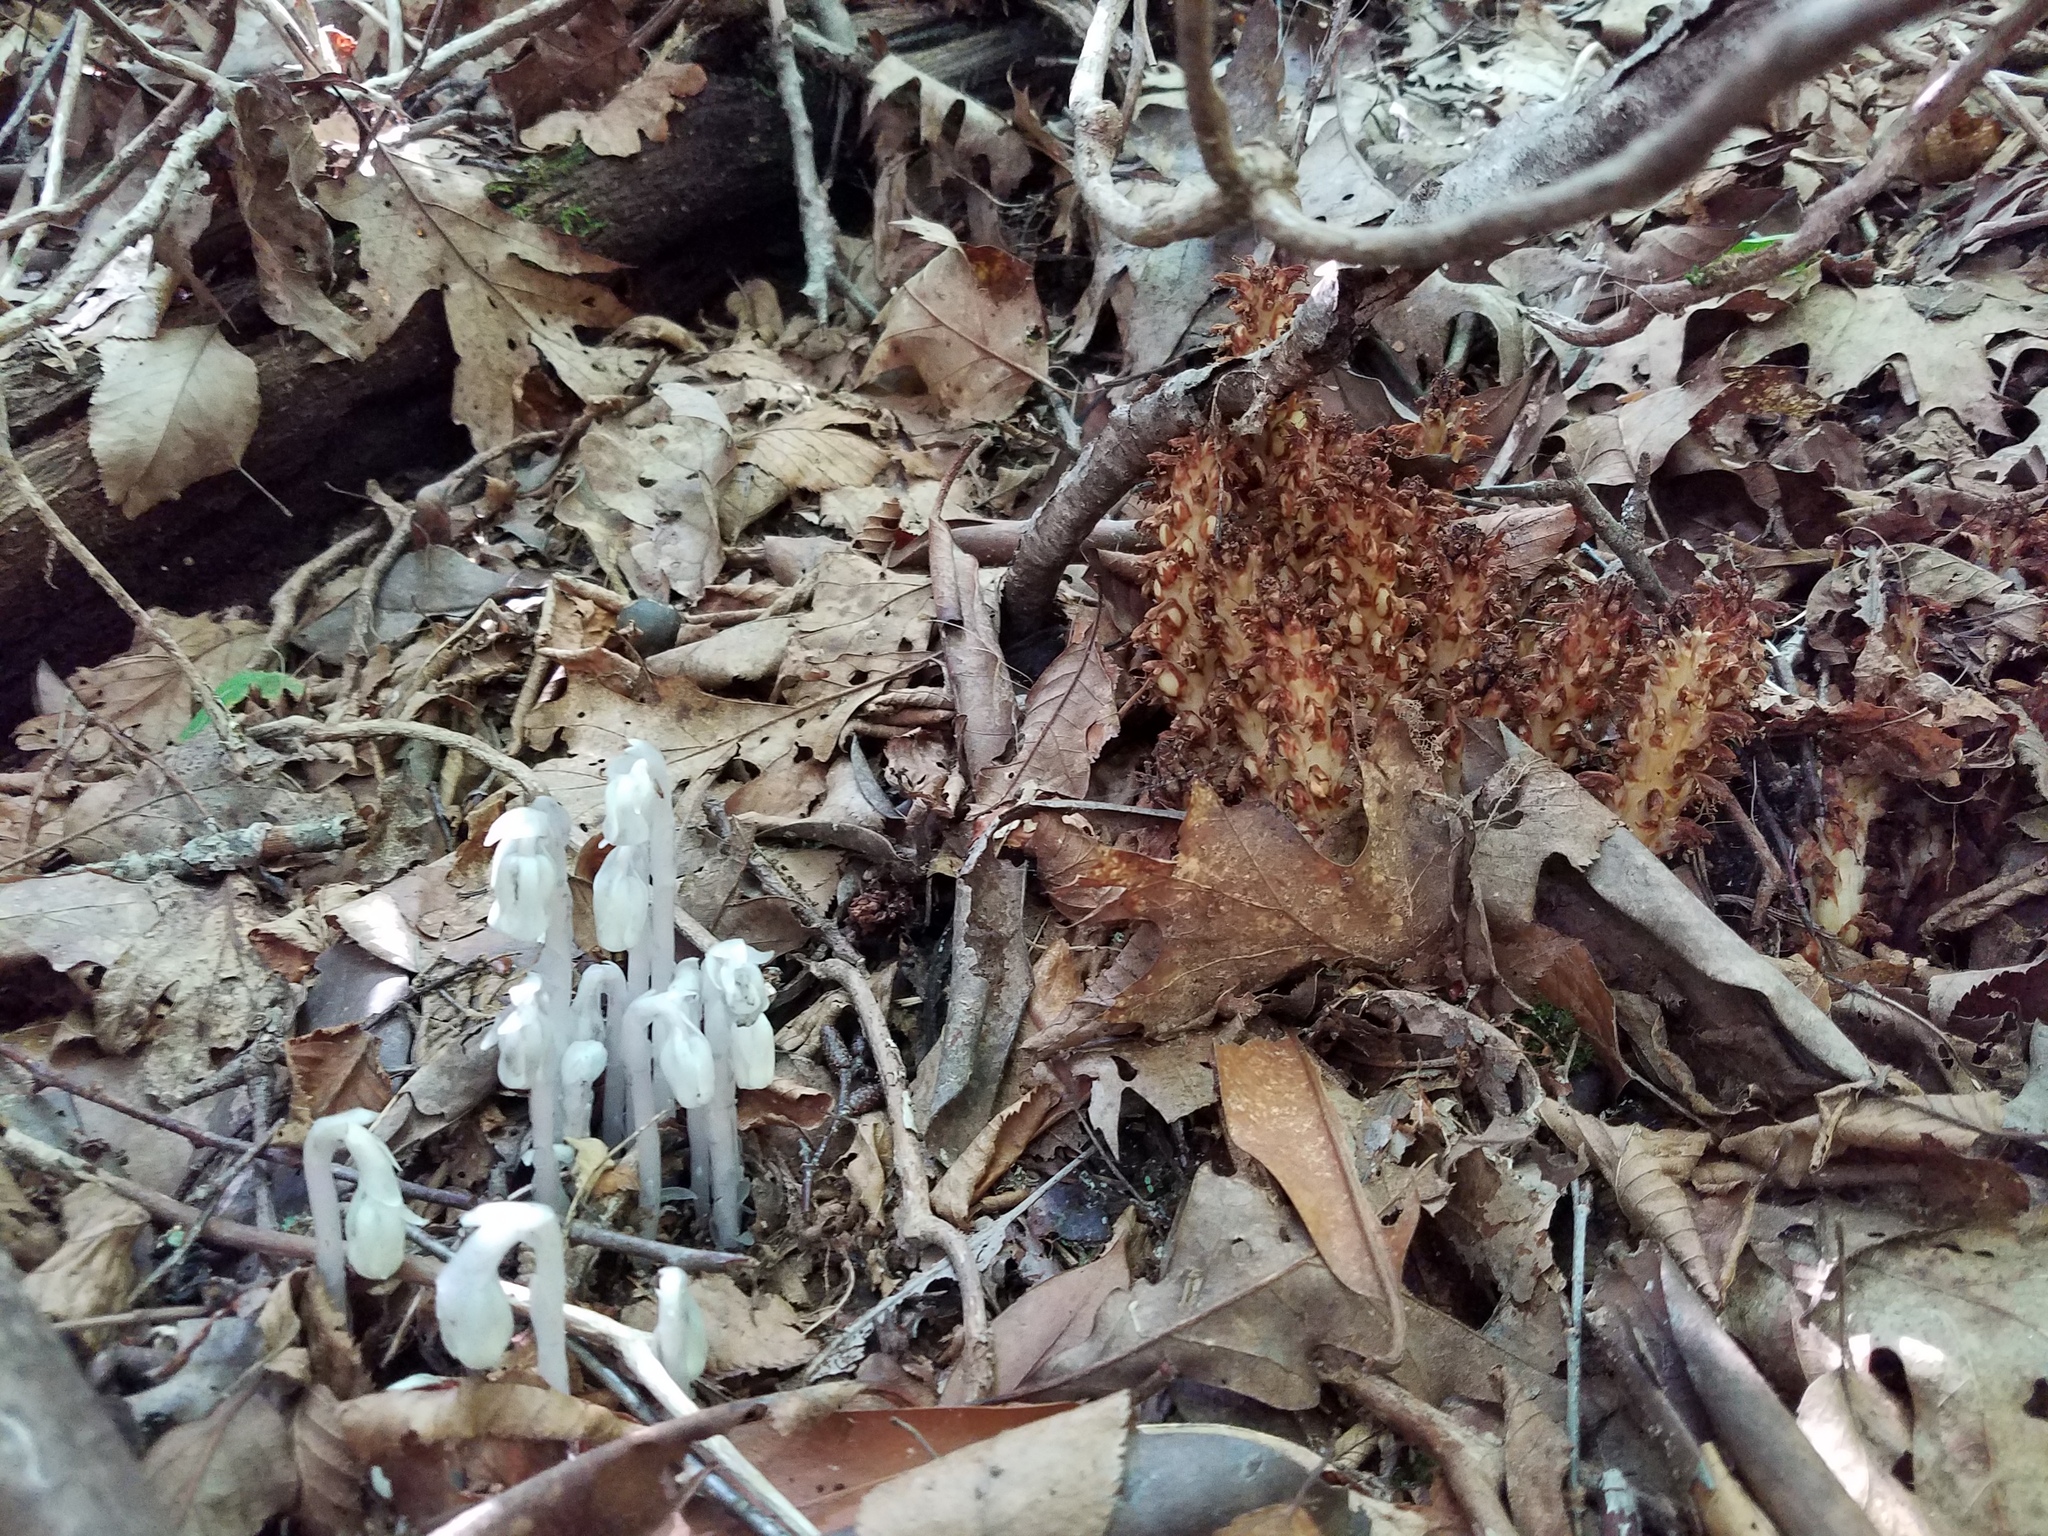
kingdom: Plantae
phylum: Tracheophyta
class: Magnoliopsida
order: Ericales
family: Ericaceae
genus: Monotropa
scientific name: Monotropa uniflora
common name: Convulsion root
